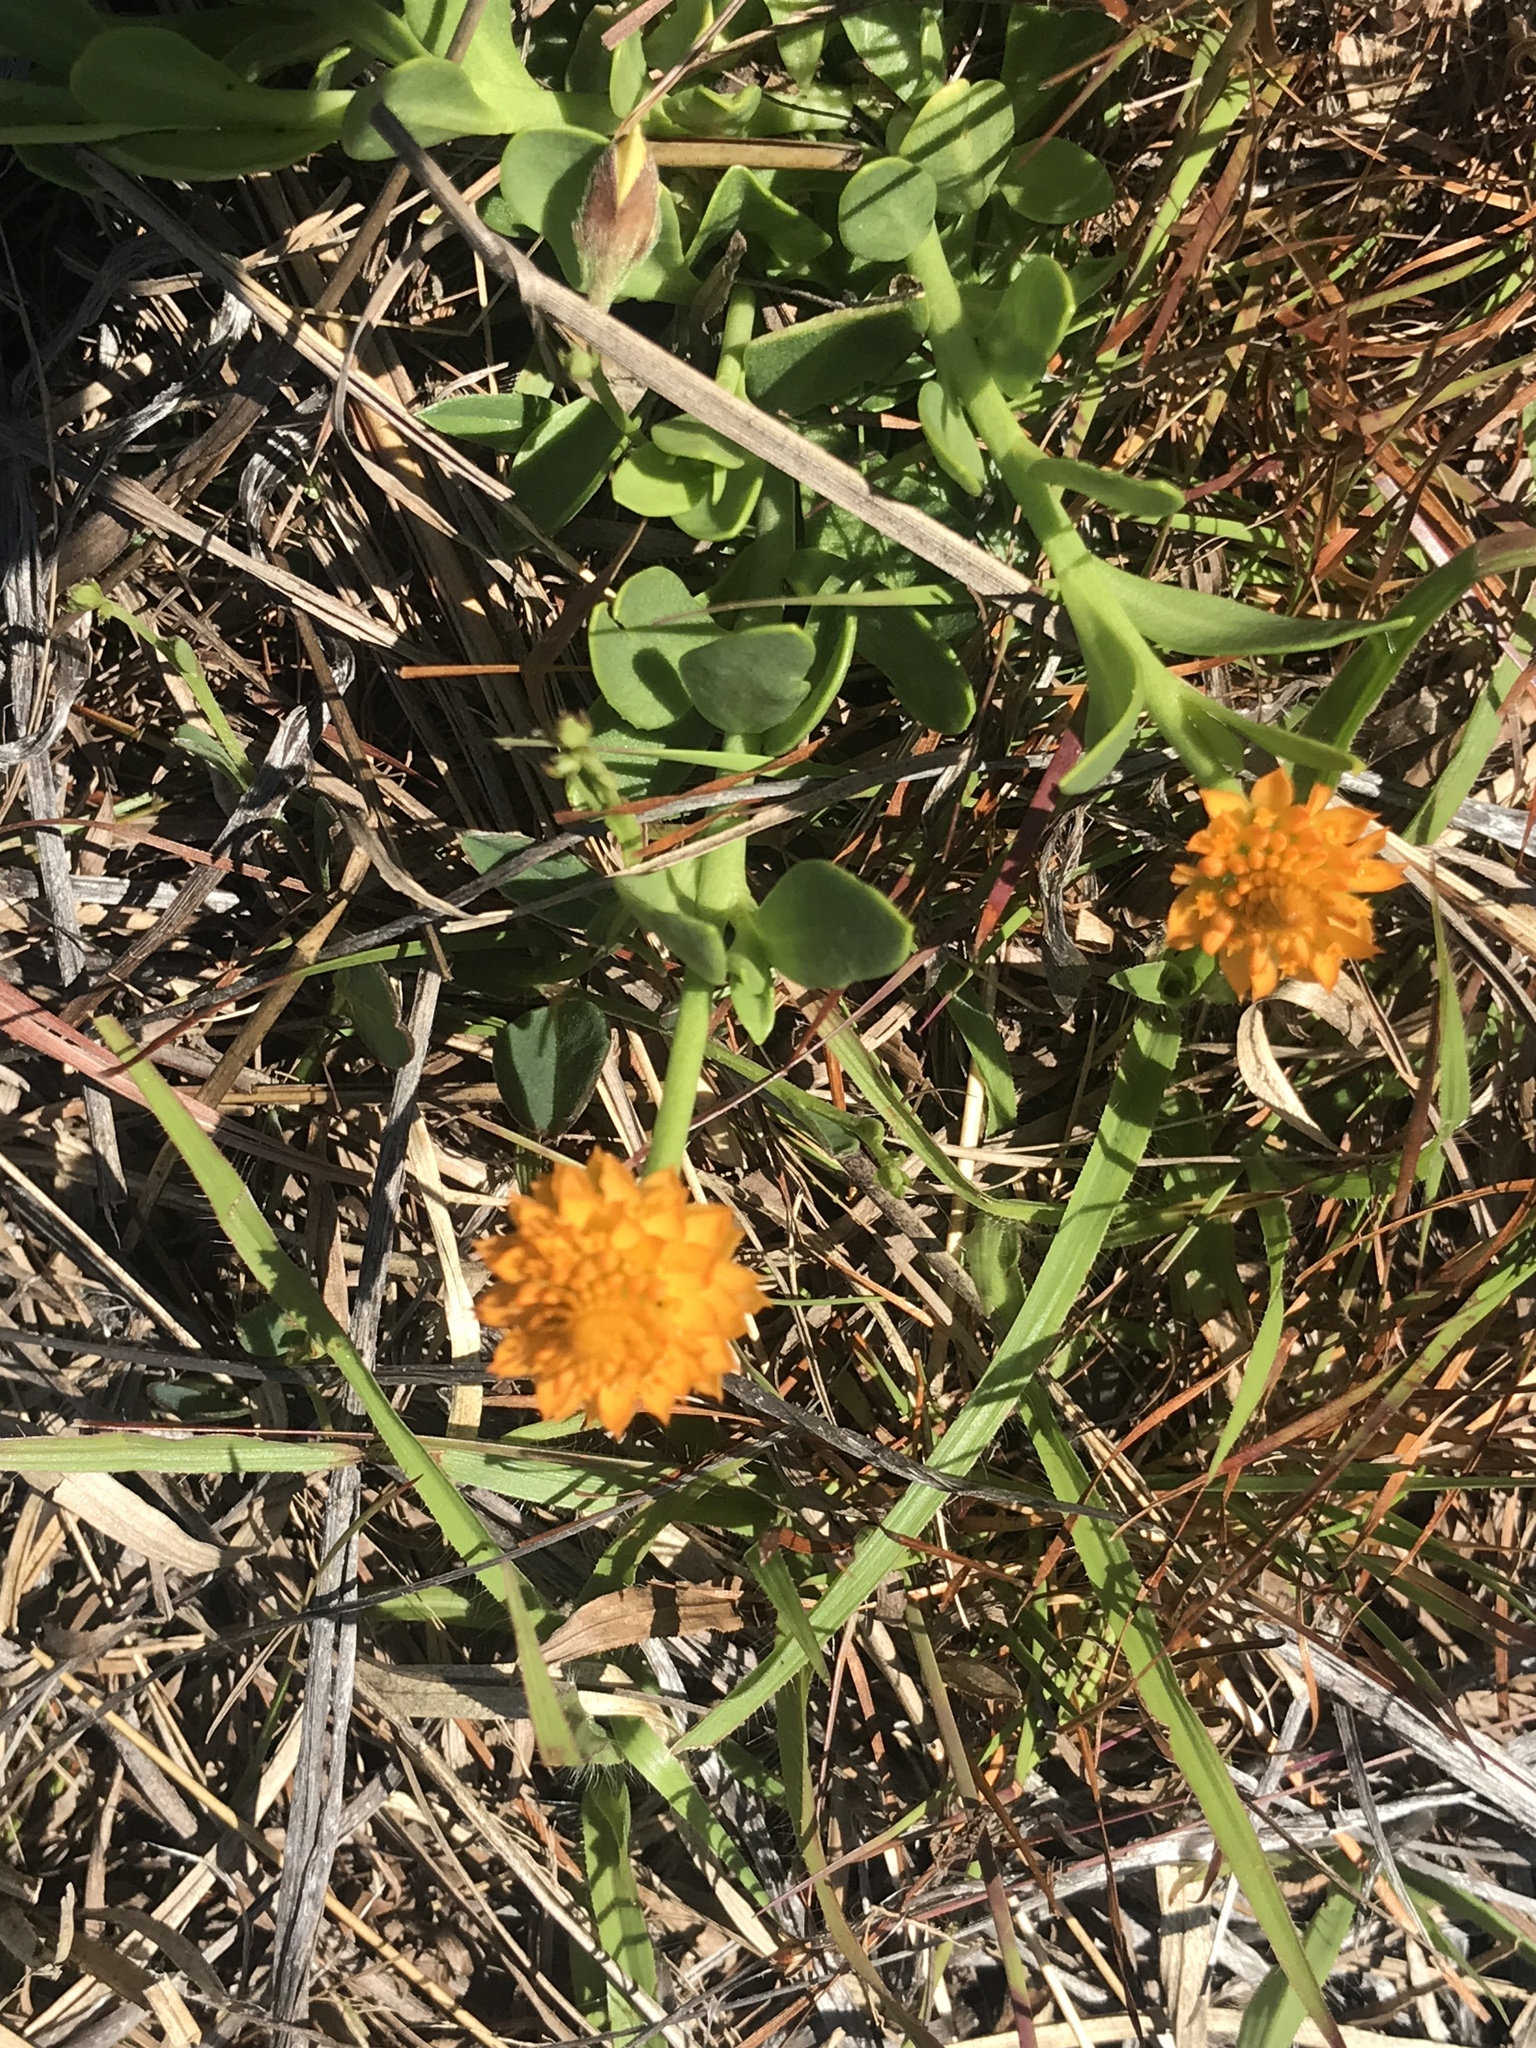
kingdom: Plantae
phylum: Tracheophyta
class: Magnoliopsida
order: Fabales
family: Polygalaceae
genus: Polygala
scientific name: Polygala lutea
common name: Orange milkwort
